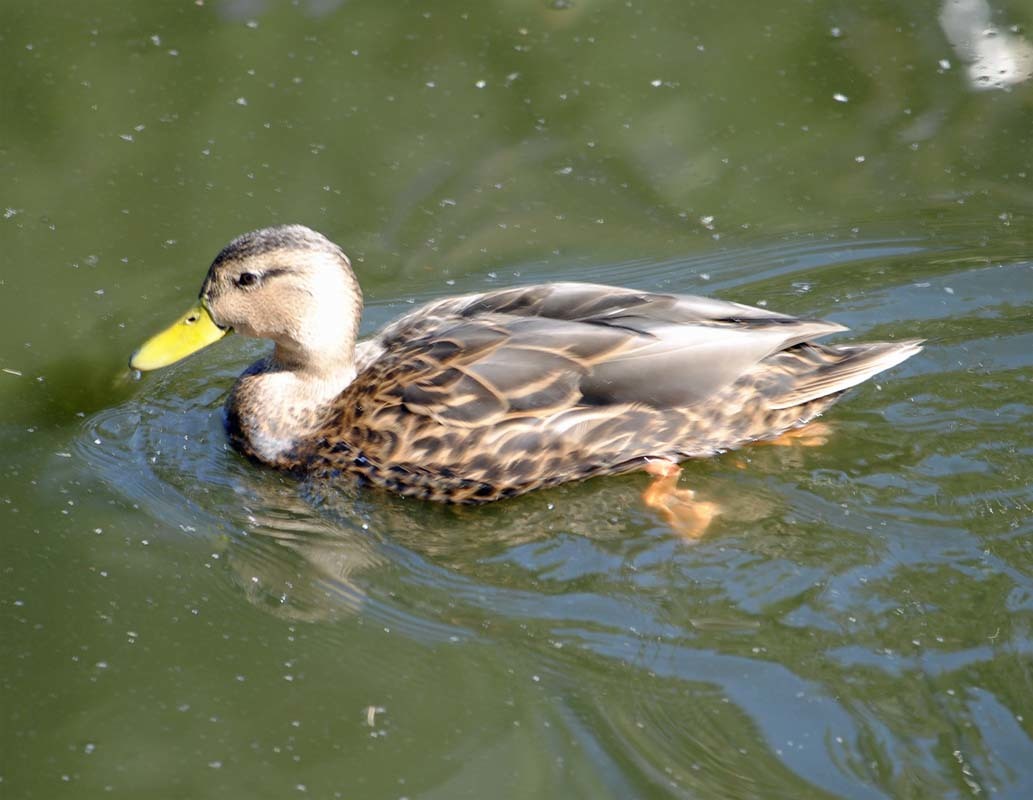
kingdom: Animalia
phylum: Chordata
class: Aves
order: Anseriformes
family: Anatidae
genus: Anas
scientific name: Anas diazi
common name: Mexican duck
